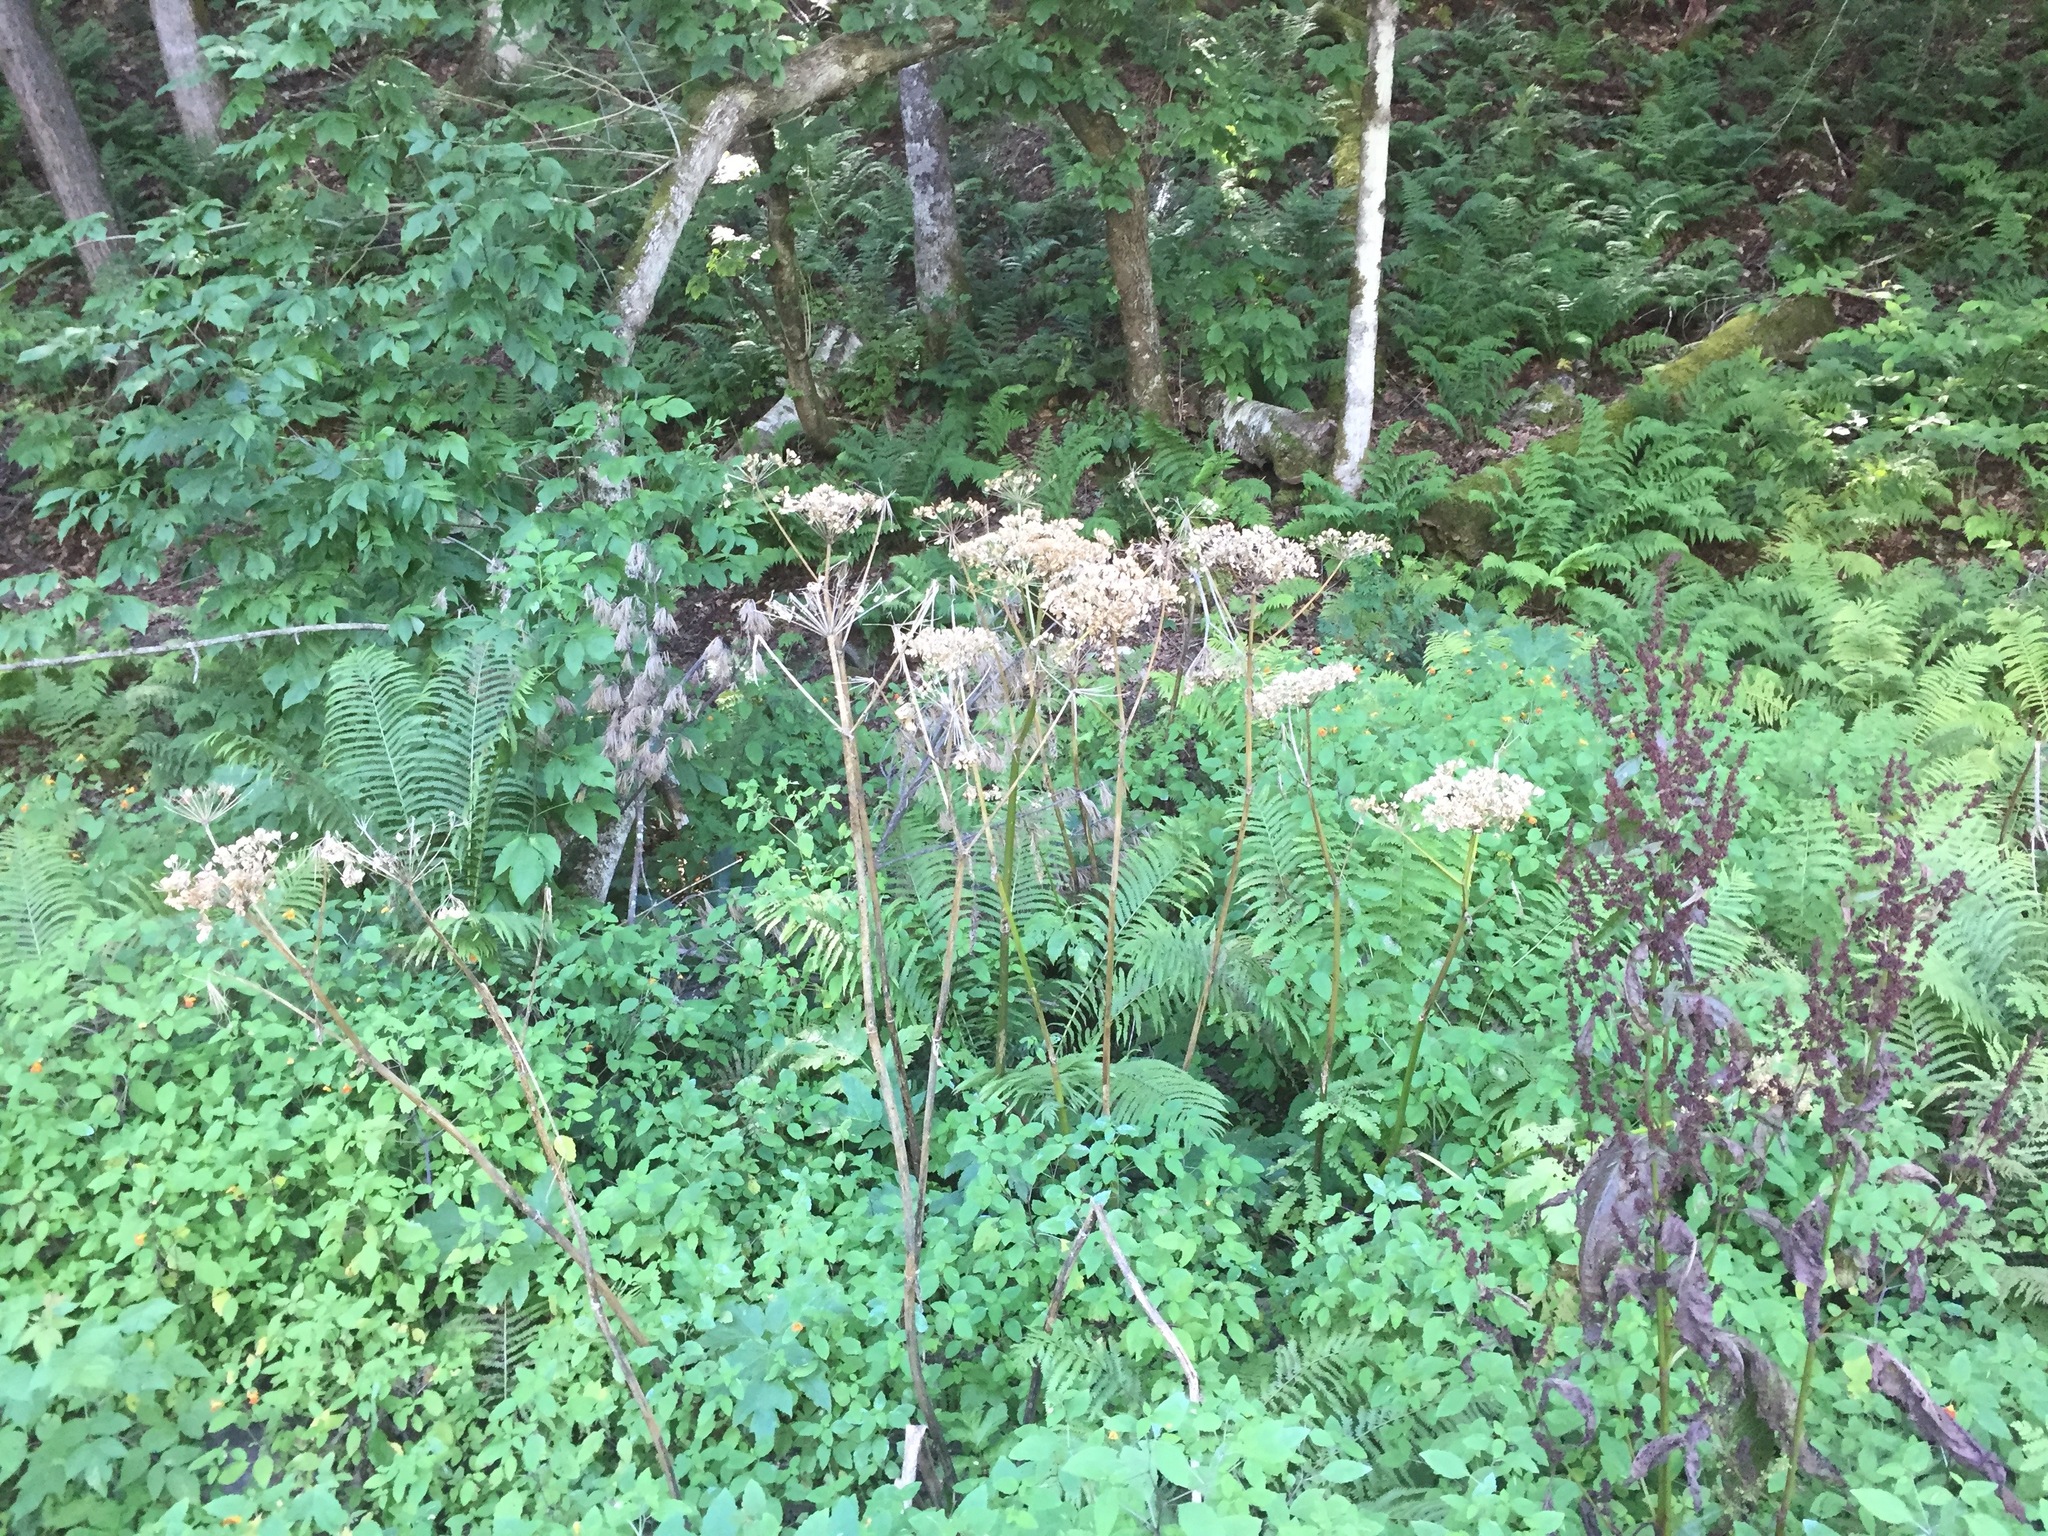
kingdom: Plantae
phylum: Tracheophyta
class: Magnoliopsida
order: Apiales
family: Apiaceae
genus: Heracleum
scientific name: Heracleum maximum
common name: American cow parsnip
